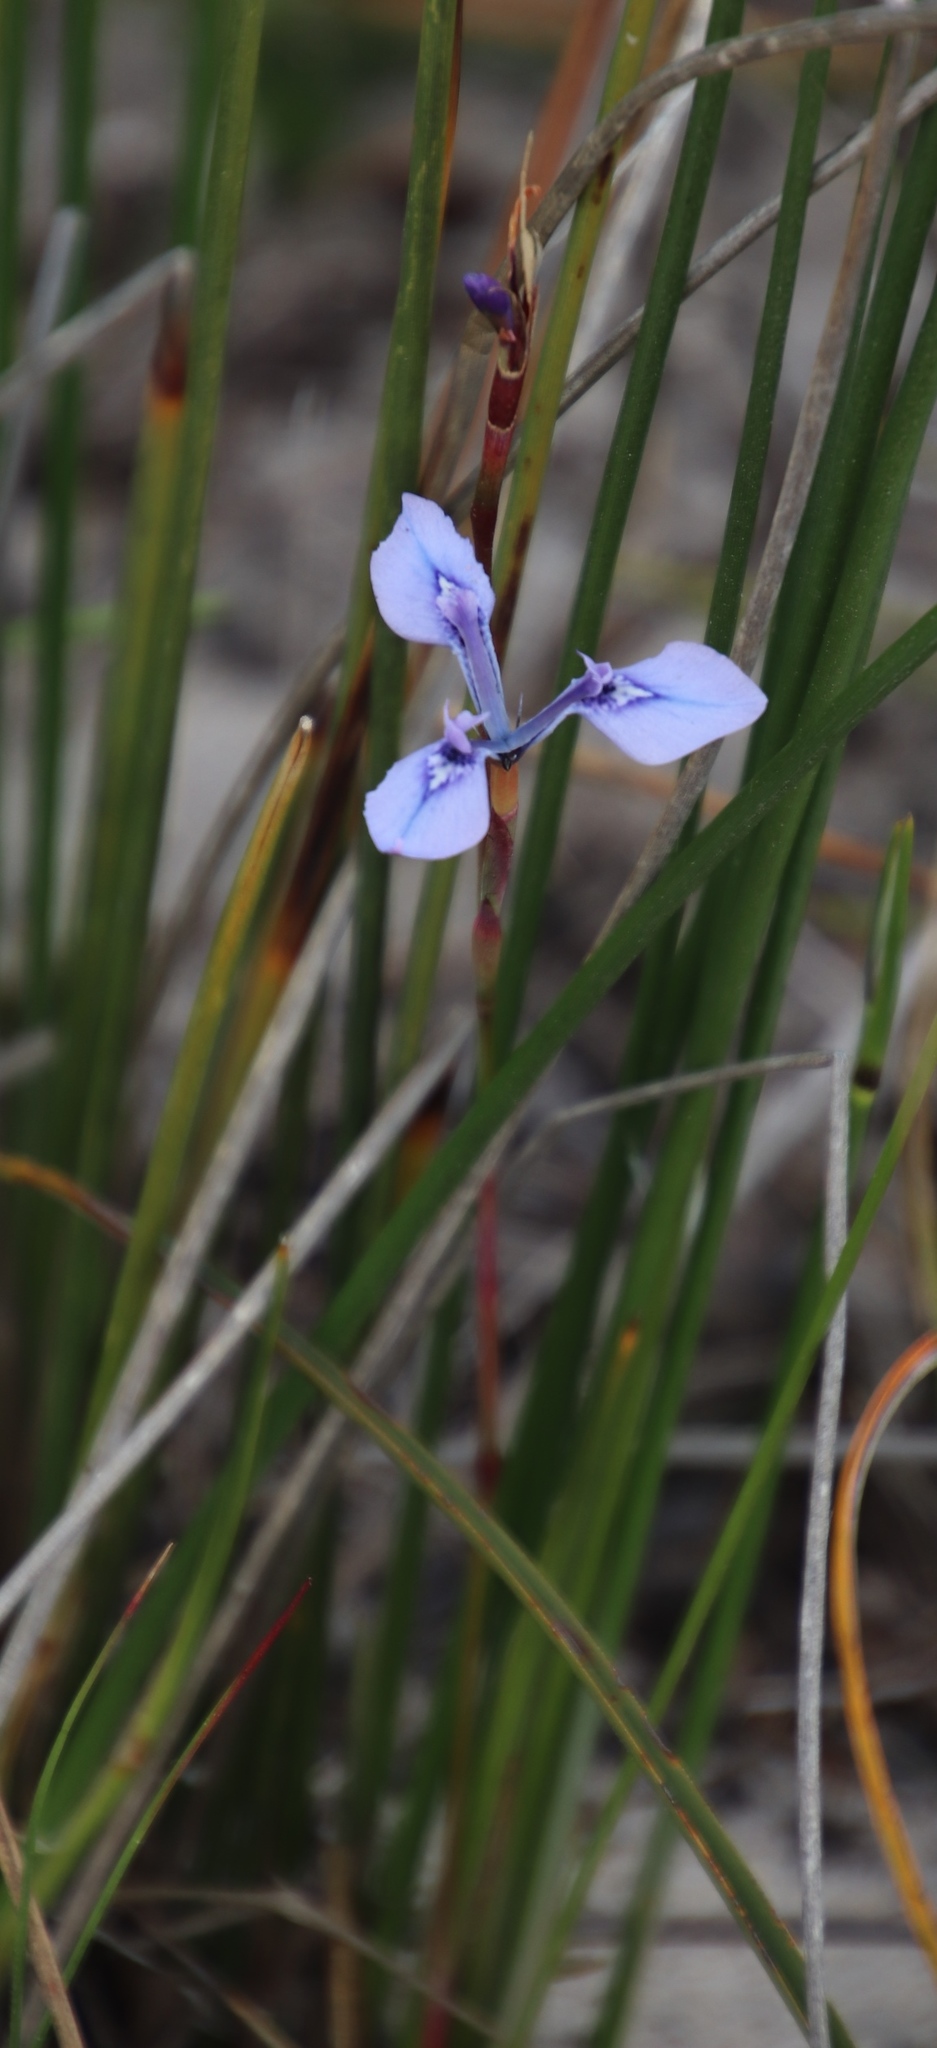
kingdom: Plantae
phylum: Tracheophyta
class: Liliopsida
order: Asparagales
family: Iridaceae
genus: Moraea
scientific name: Moraea tripetala
